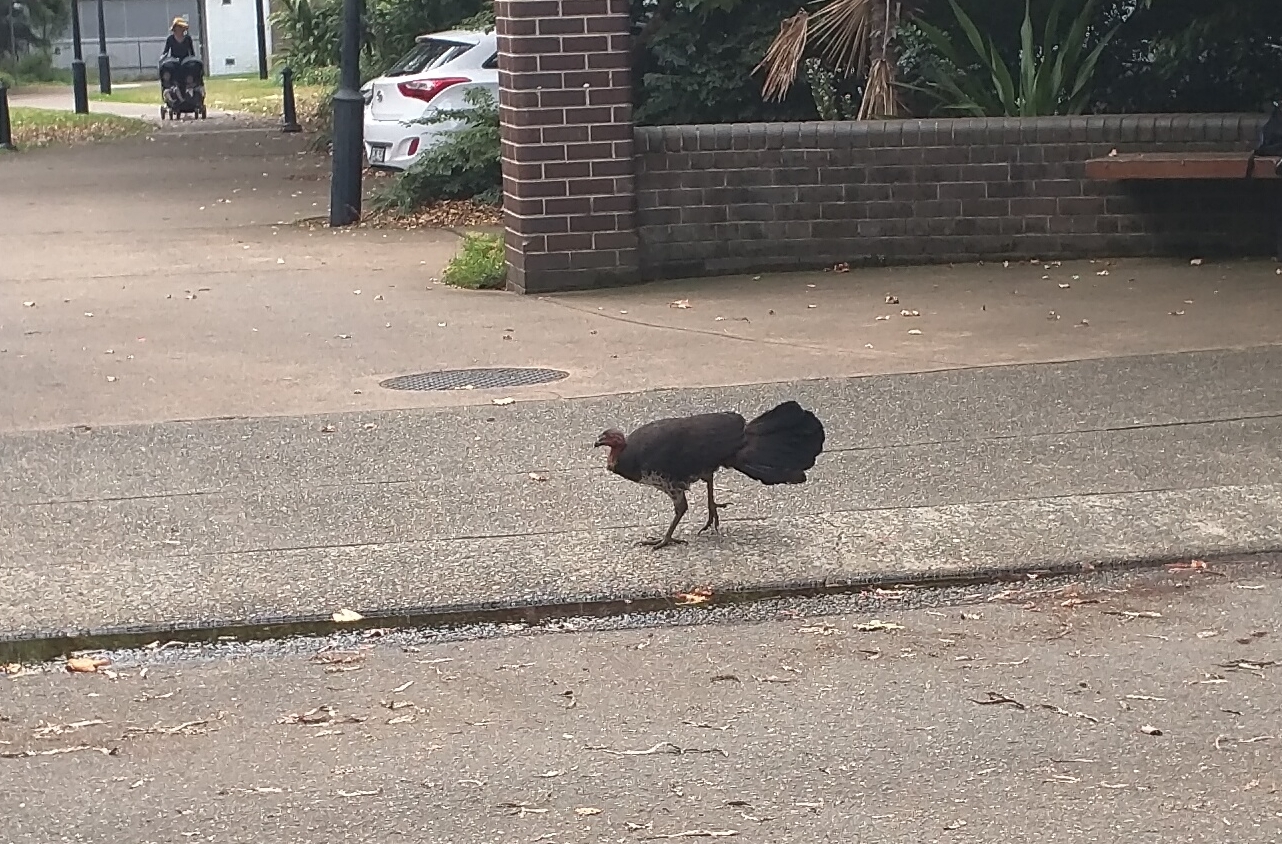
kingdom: Animalia
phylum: Chordata
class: Aves
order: Galliformes
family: Megapodiidae
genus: Alectura
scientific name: Alectura lathami
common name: Australian brushturkey
